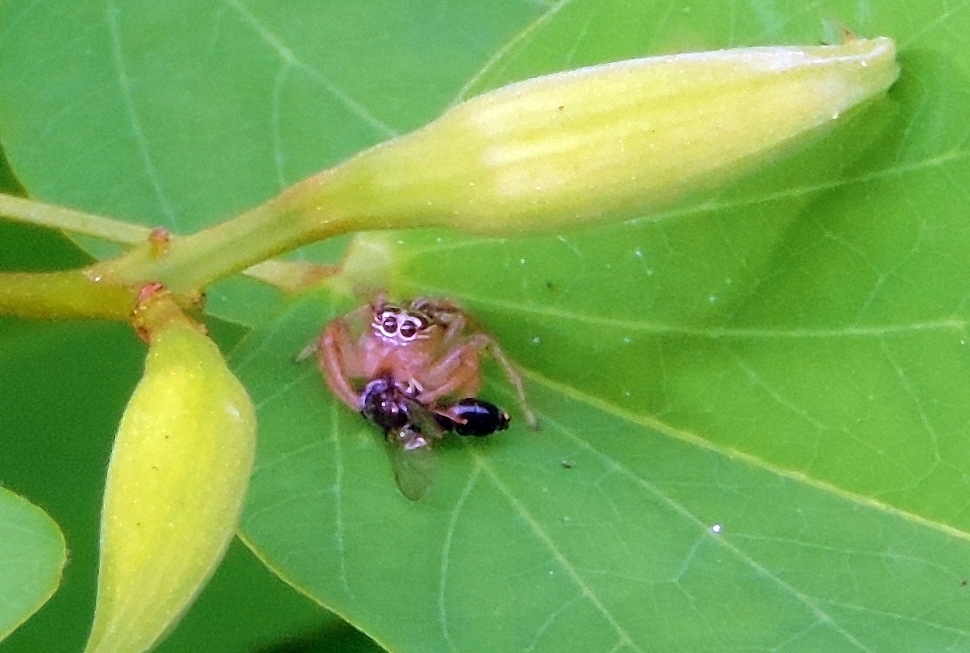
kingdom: Animalia
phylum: Arthropoda
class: Arachnida
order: Araneae
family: Salticidae
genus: Thyene
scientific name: Thyene inflata
